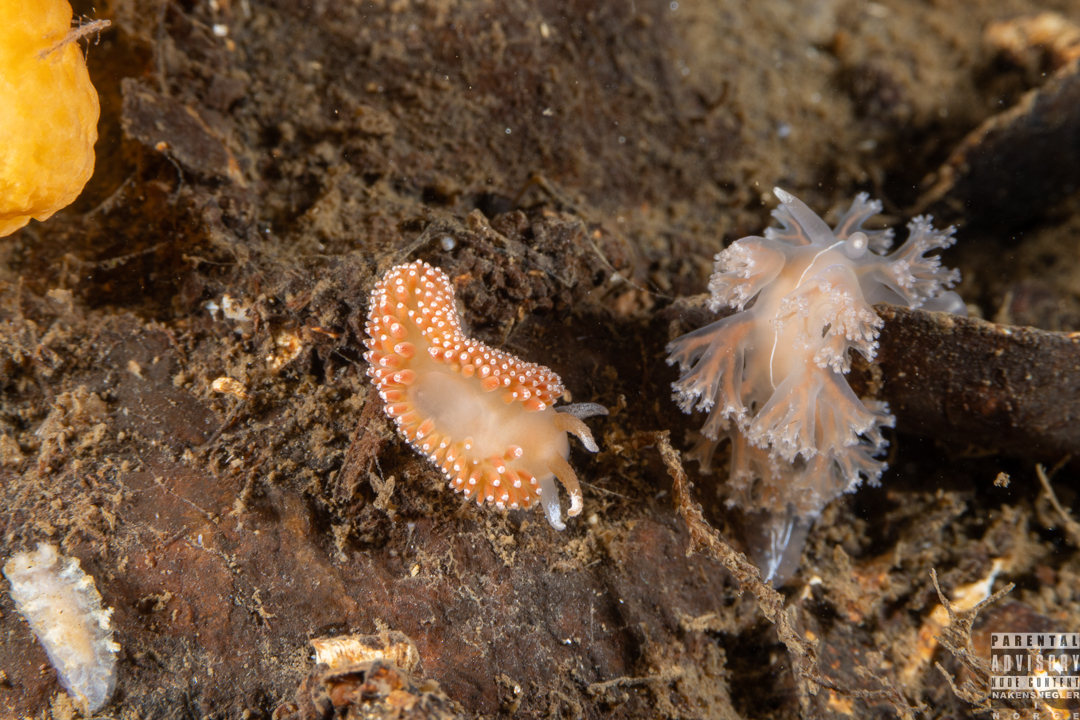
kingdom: Animalia
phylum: Mollusca
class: Gastropoda
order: Nudibranchia
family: Coryphellidae
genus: Coryphella
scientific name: Coryphella borealis
